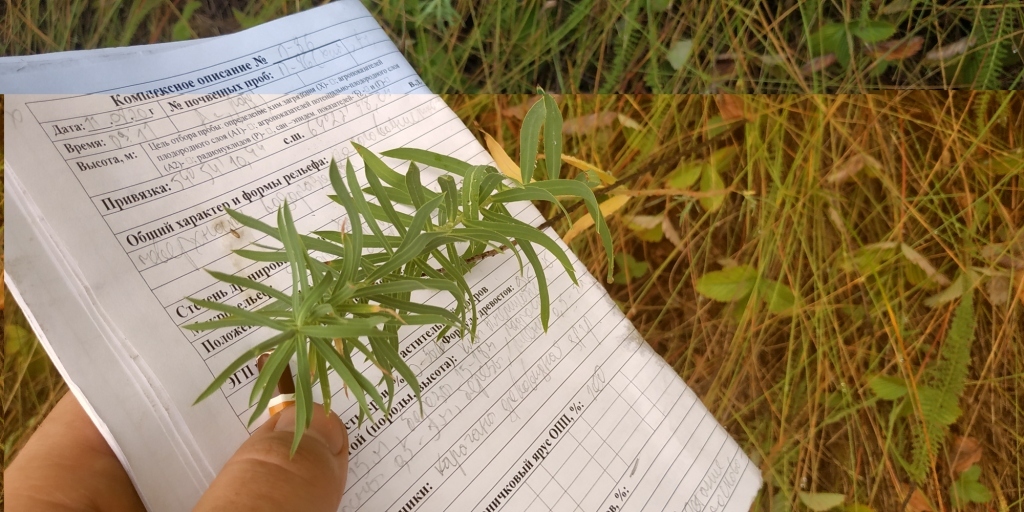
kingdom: Plantae
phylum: Tracheophyta
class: Magnoliopsida
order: Malpighiales
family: Euphorbiaceae
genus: Euphorbia
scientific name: Euphorbia virgata
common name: Leafy spurge
